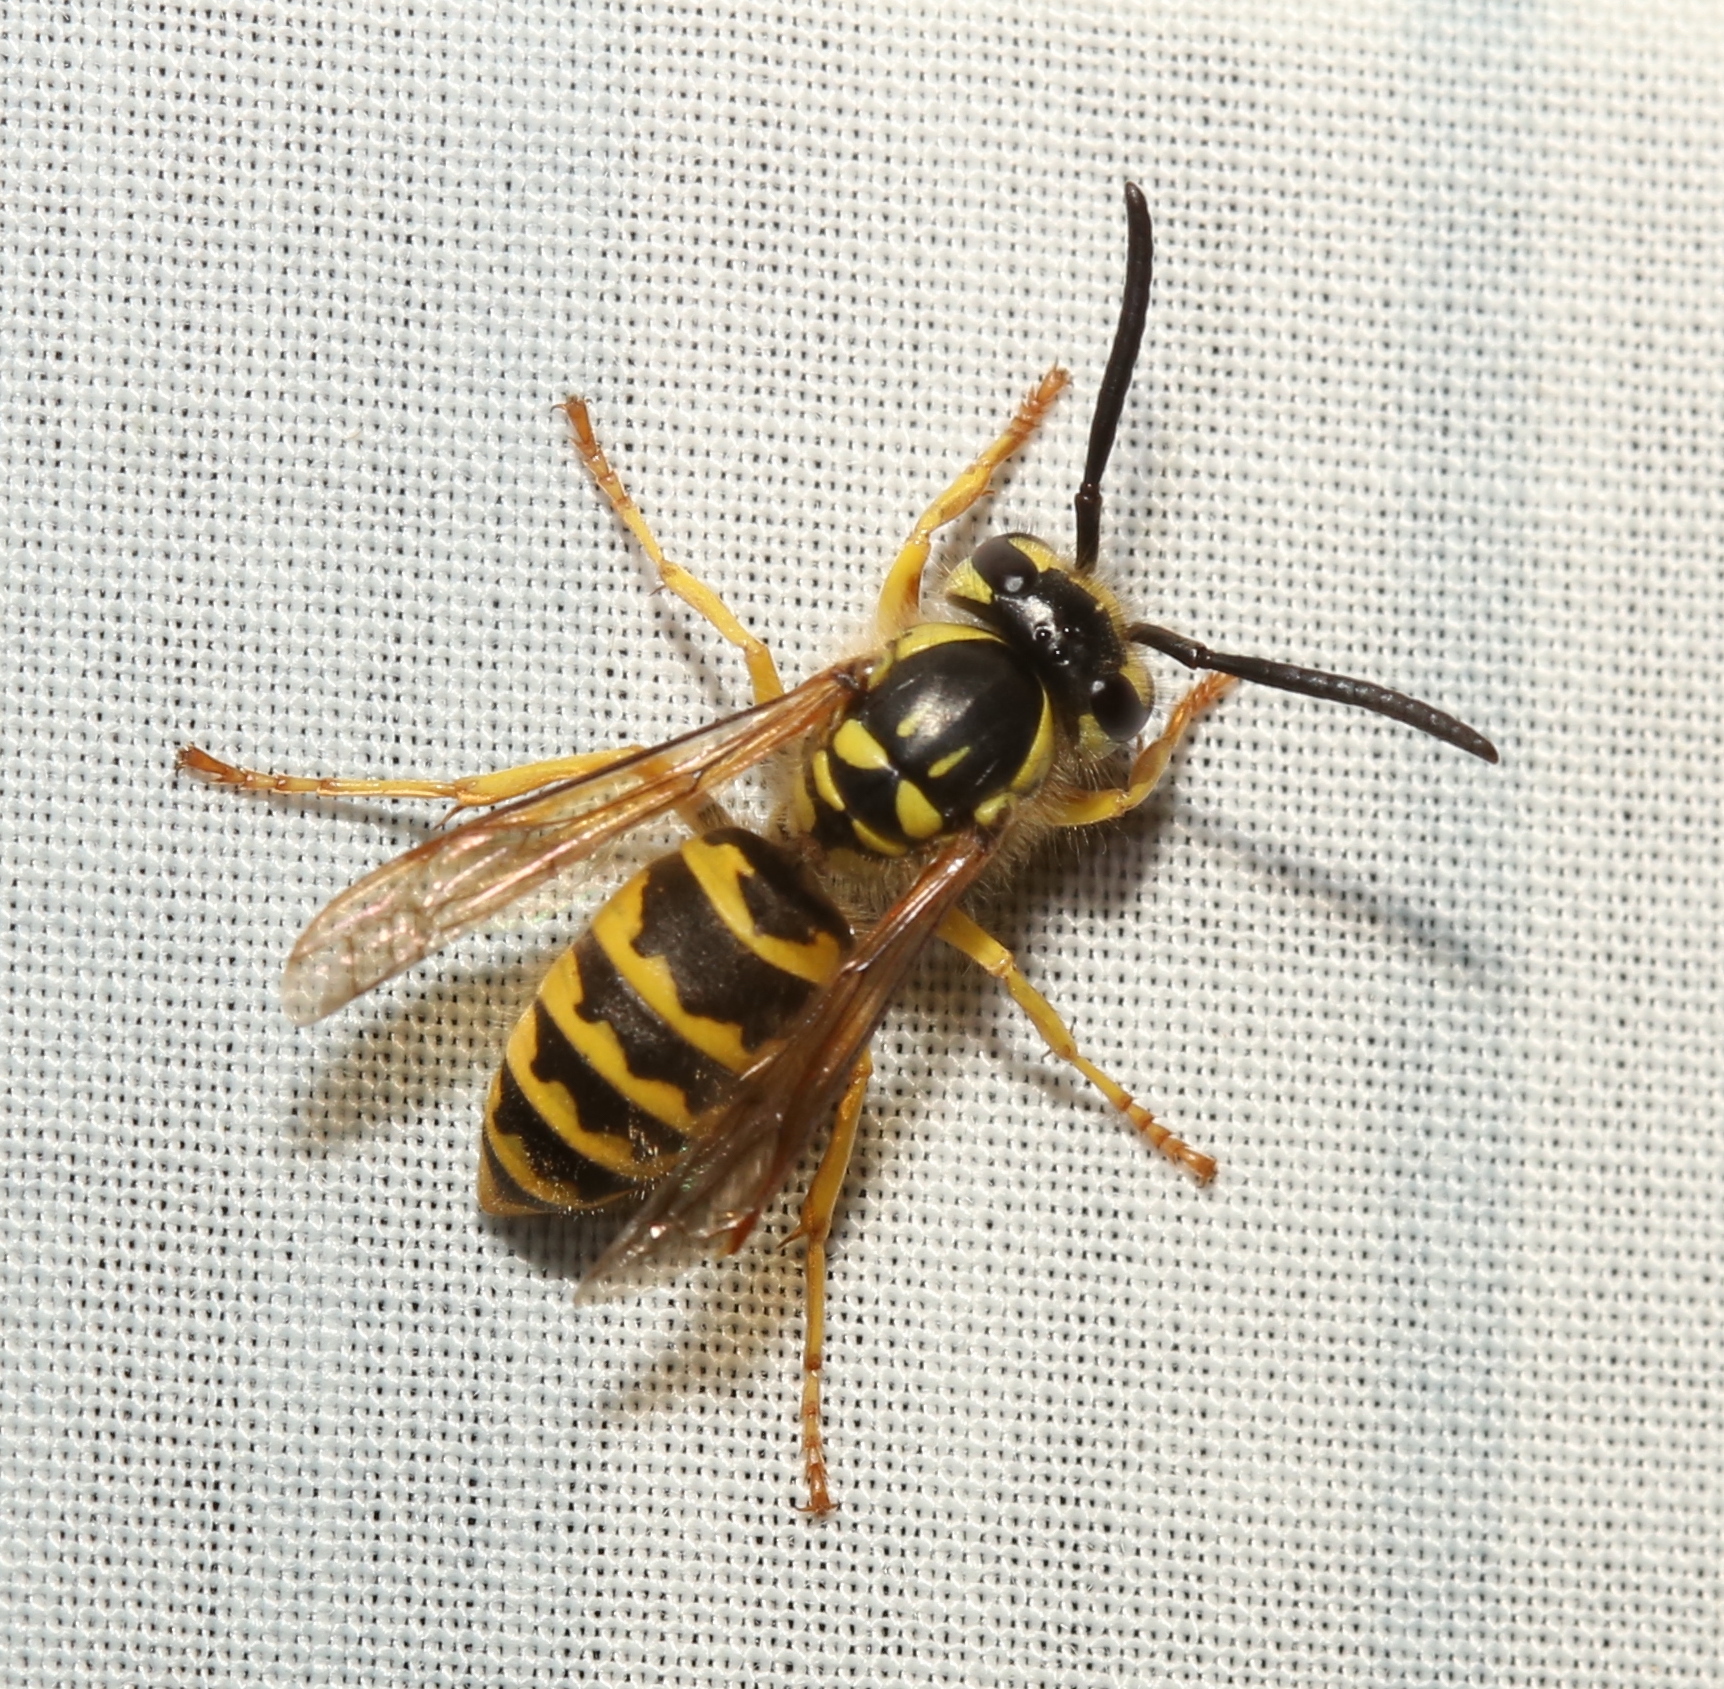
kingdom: Animalia
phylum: Arthropoda
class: Insecta
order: Hymenoptera
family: Vespidae
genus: Vespula
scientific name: Vespula flavopilosa
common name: Downy yellowjacket
